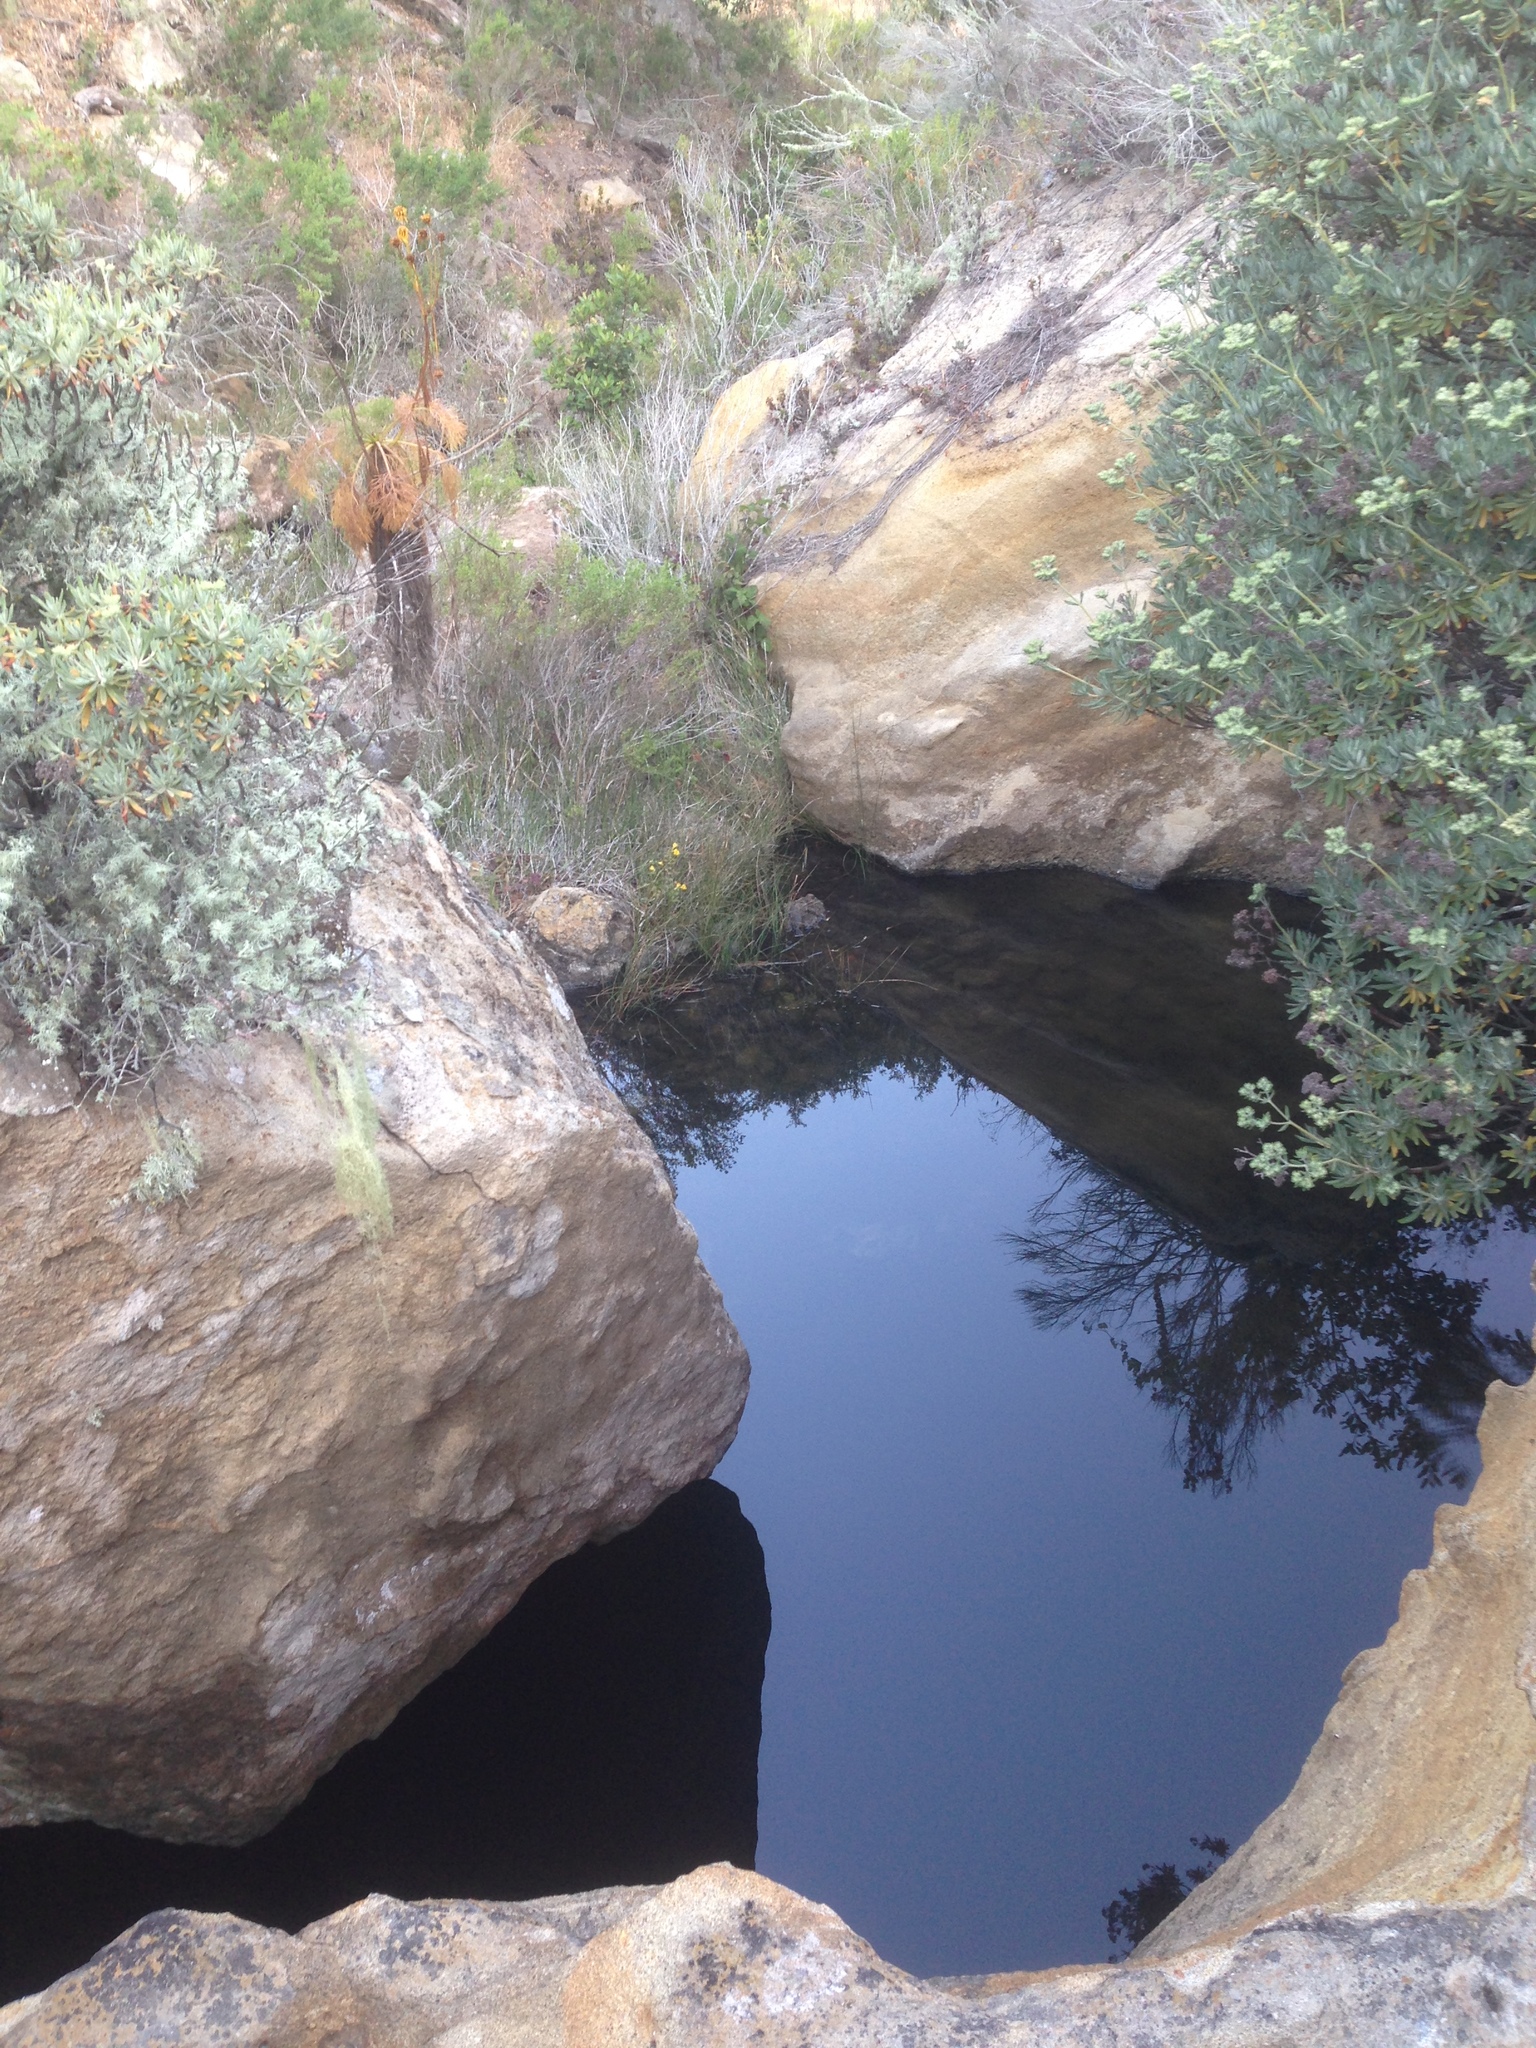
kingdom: Plantae
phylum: Tracheophyta
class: Magnoliopsida
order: Caryophyllales
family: Polygonaceae
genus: Eriogonum
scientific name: Eriogonum arborescens
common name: Island buckwheat
